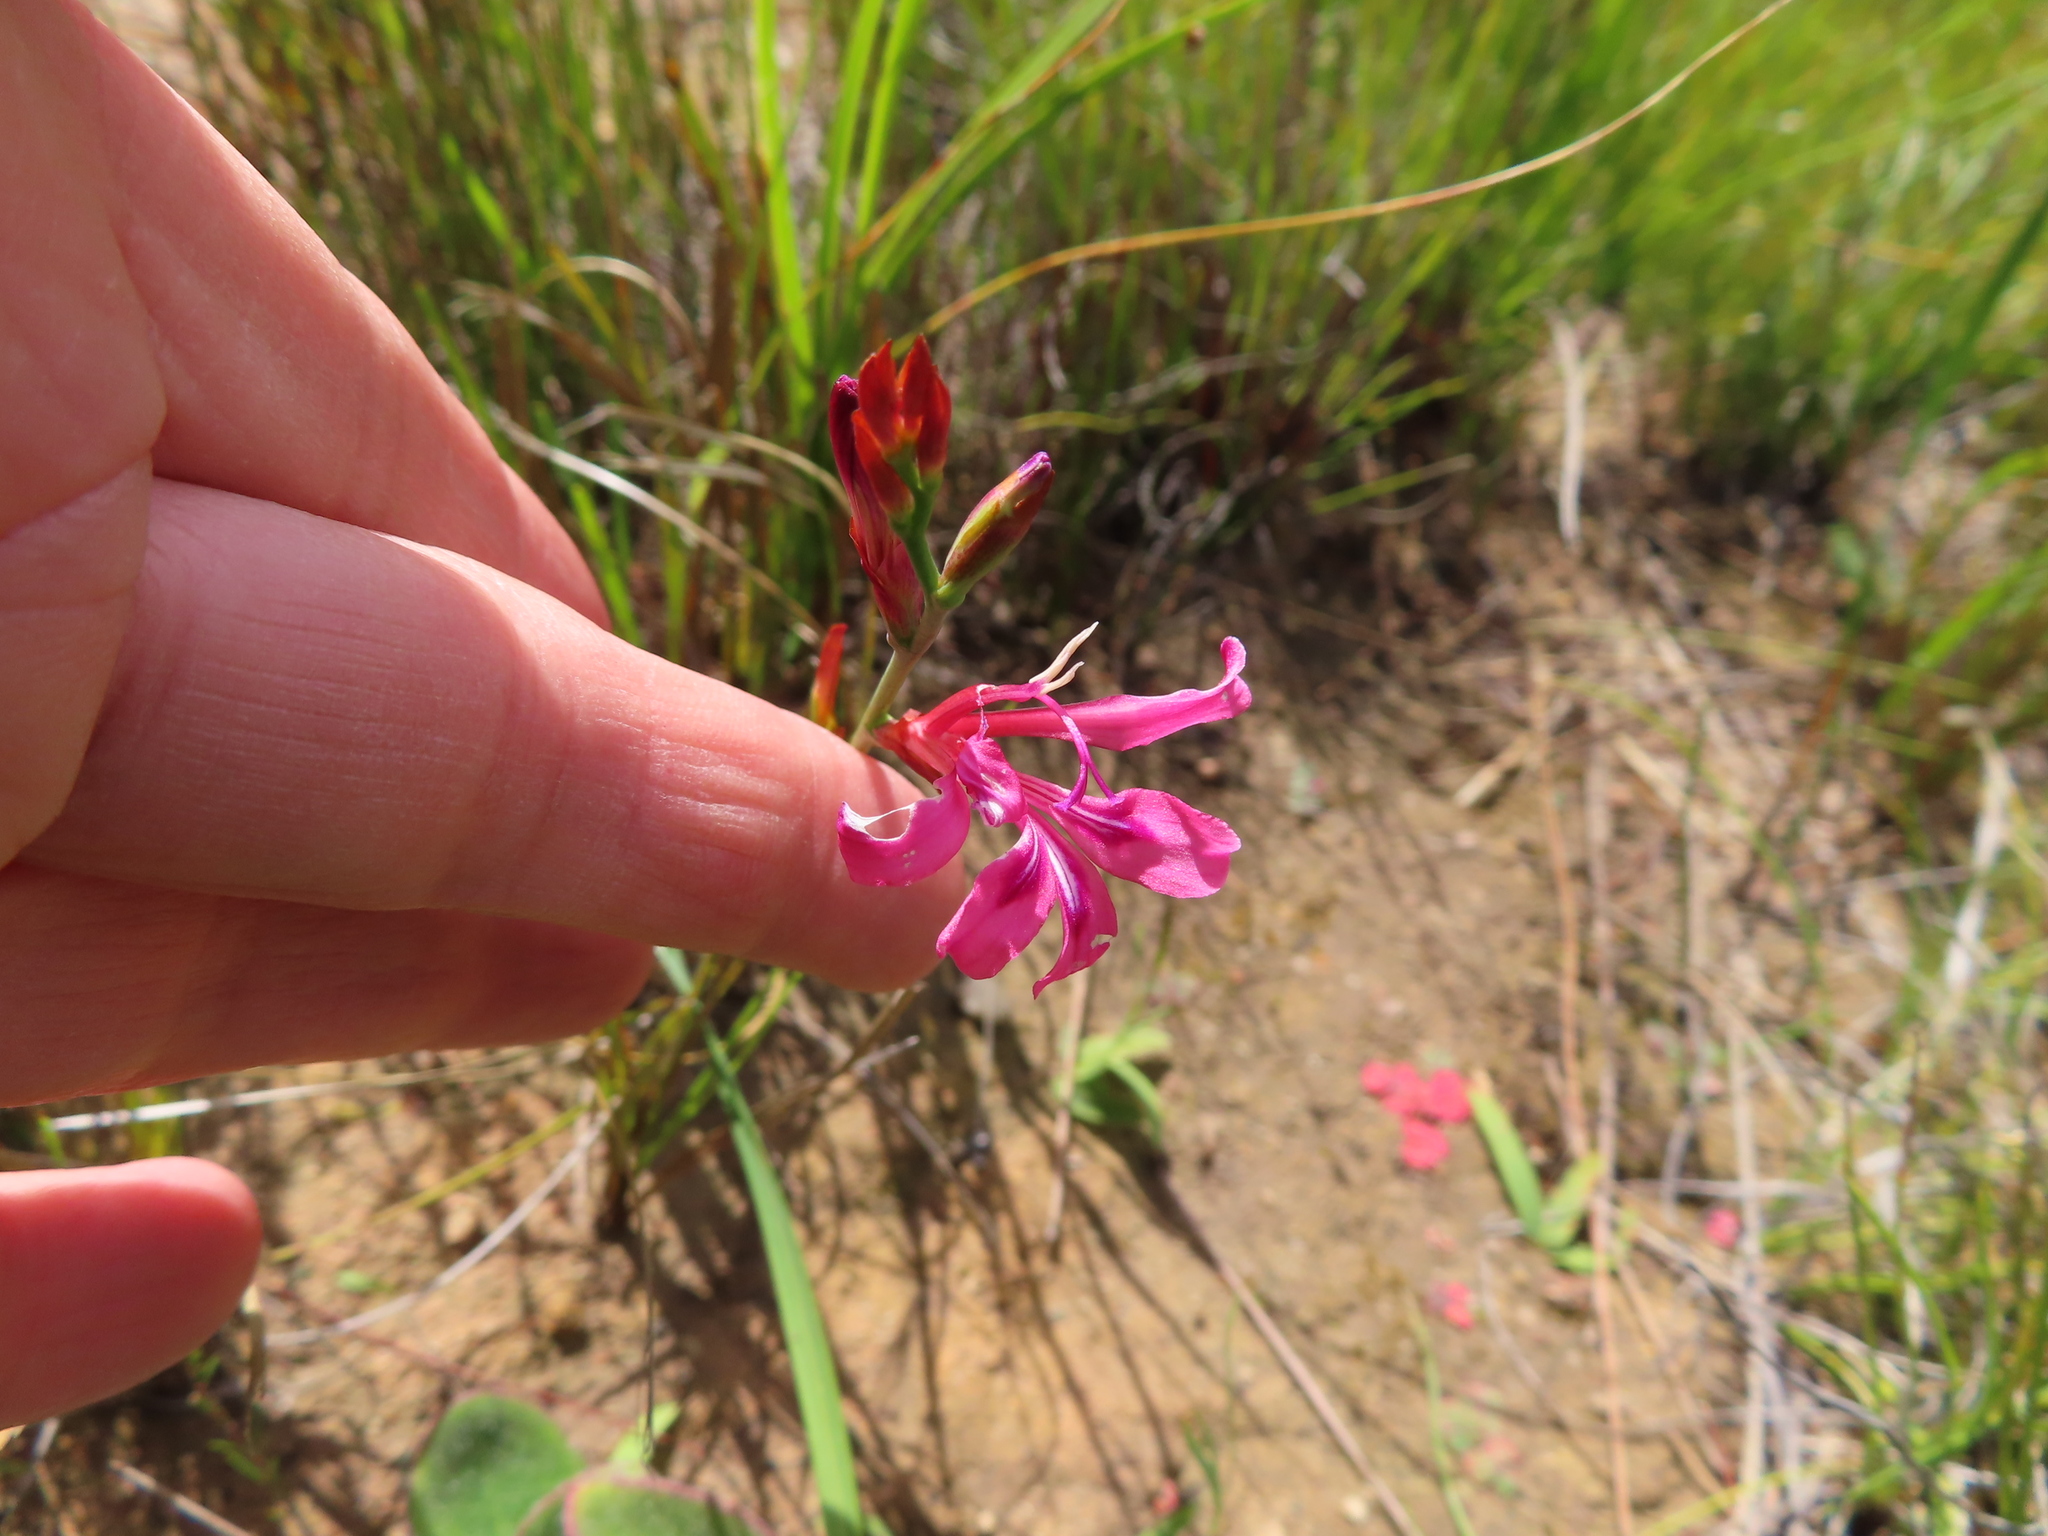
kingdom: Plantae
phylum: Tracheophyta
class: Liliopsida
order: Asparagales
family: Iridaceae
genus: Tritoniopsis
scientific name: Tritoniopsis lata
